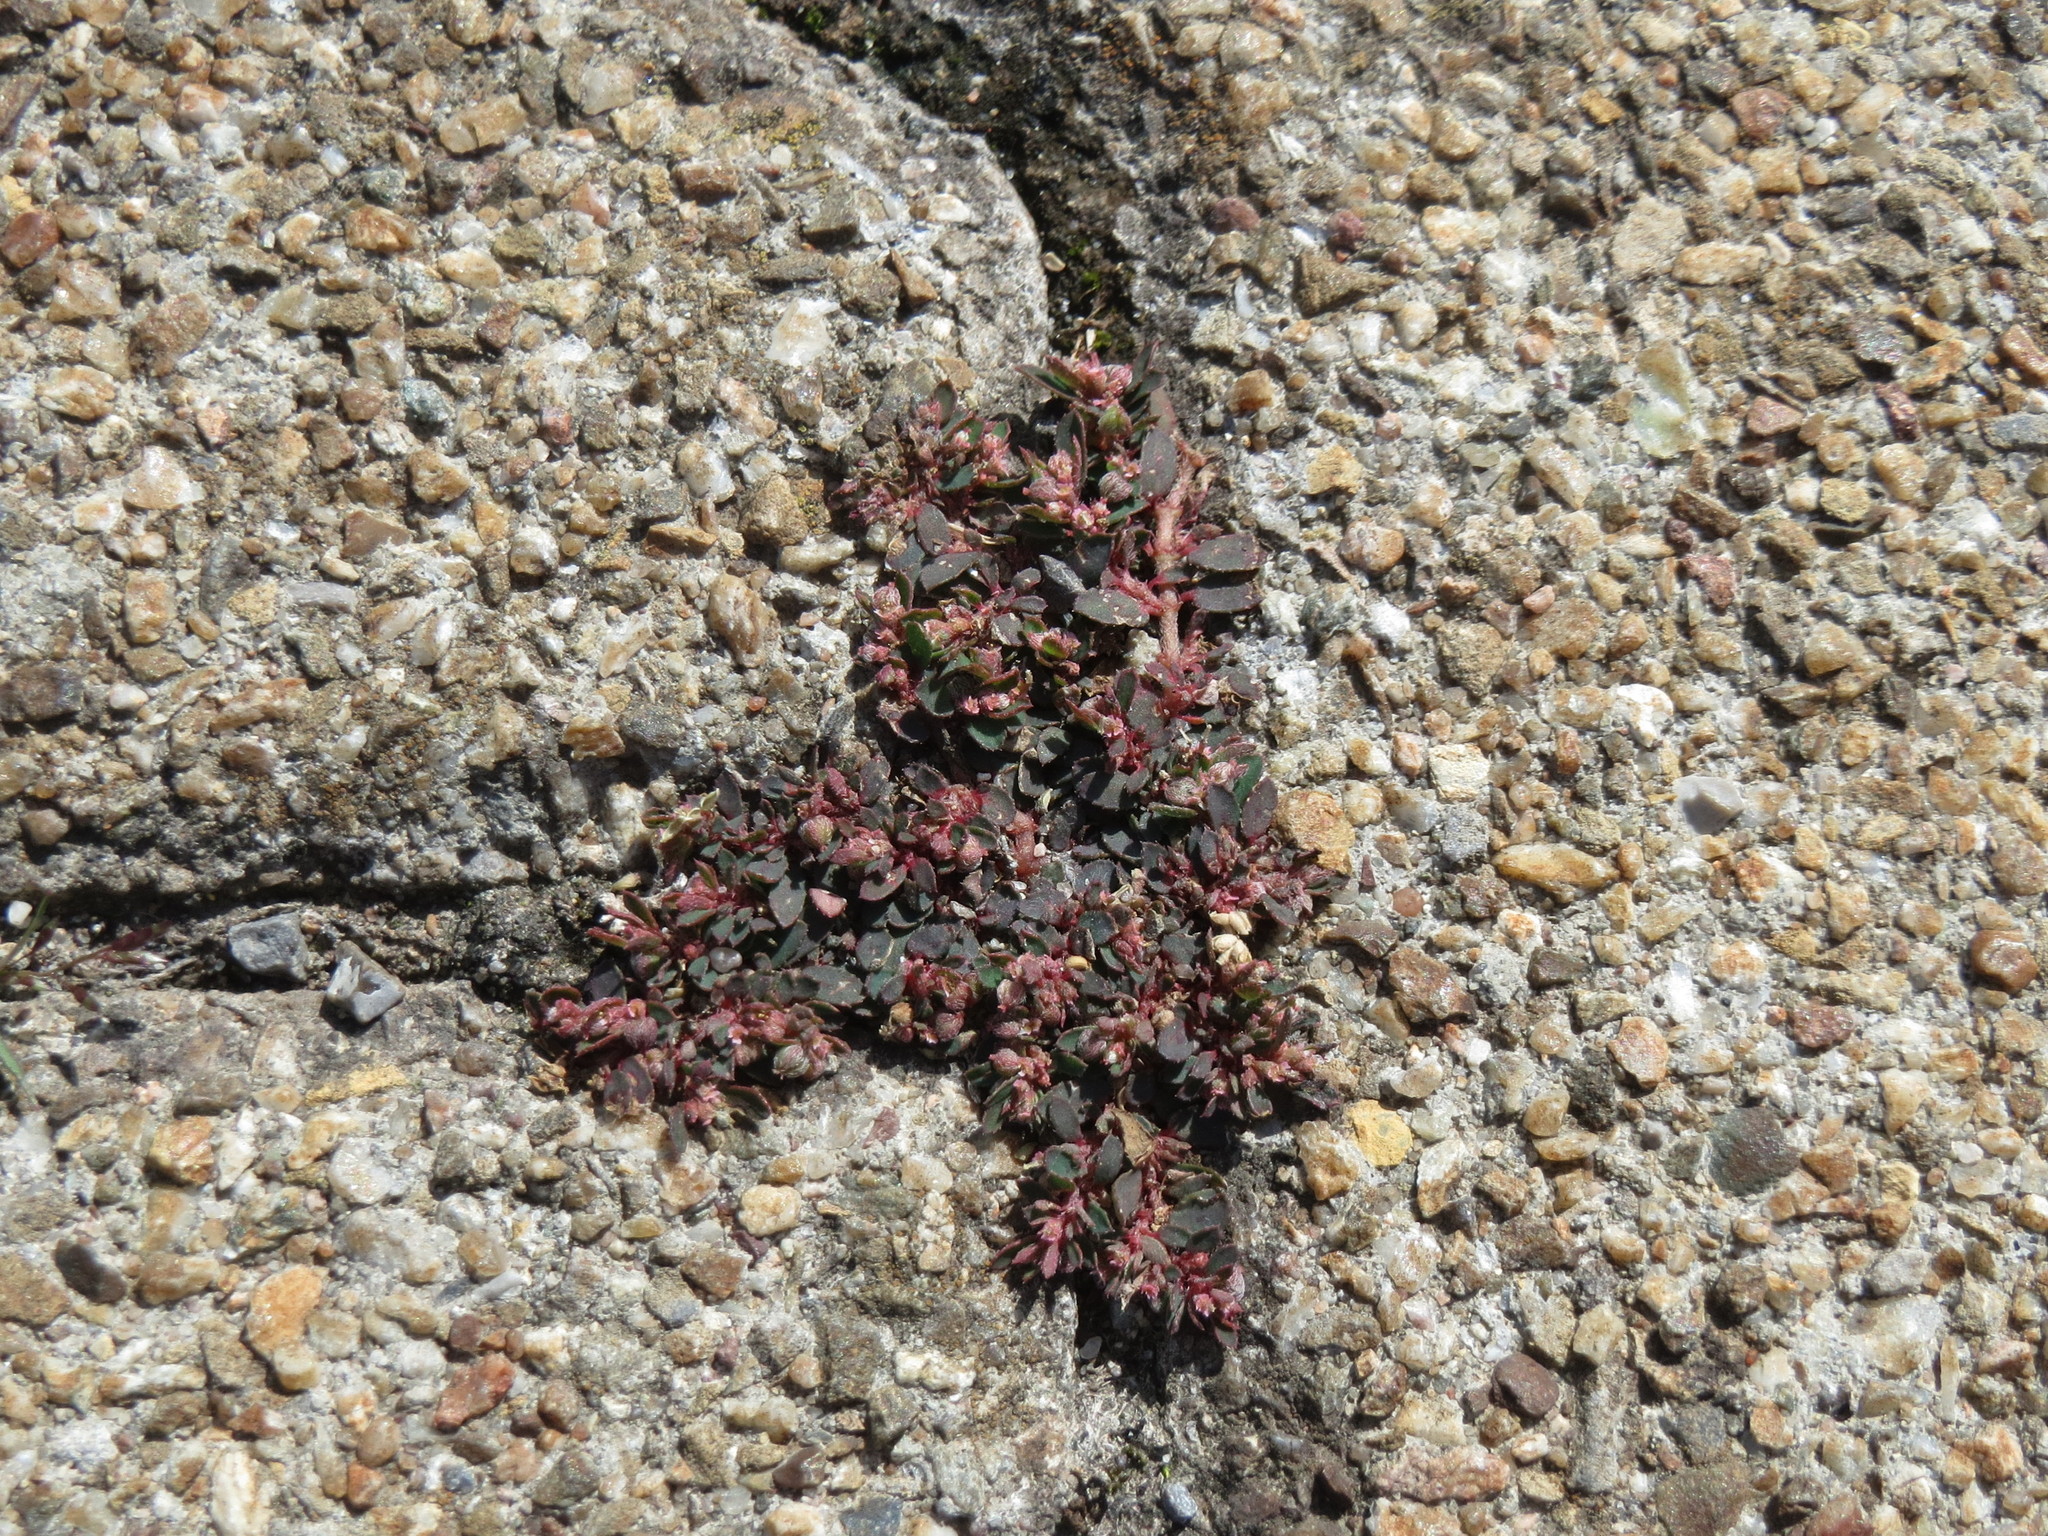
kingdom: Plantae
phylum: Tracheophyta
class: Magnoliopsida
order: Malpighiales
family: Euphorbiaceae
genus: Euphorbia
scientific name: Euphorbia maculata
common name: Spotted spurge
